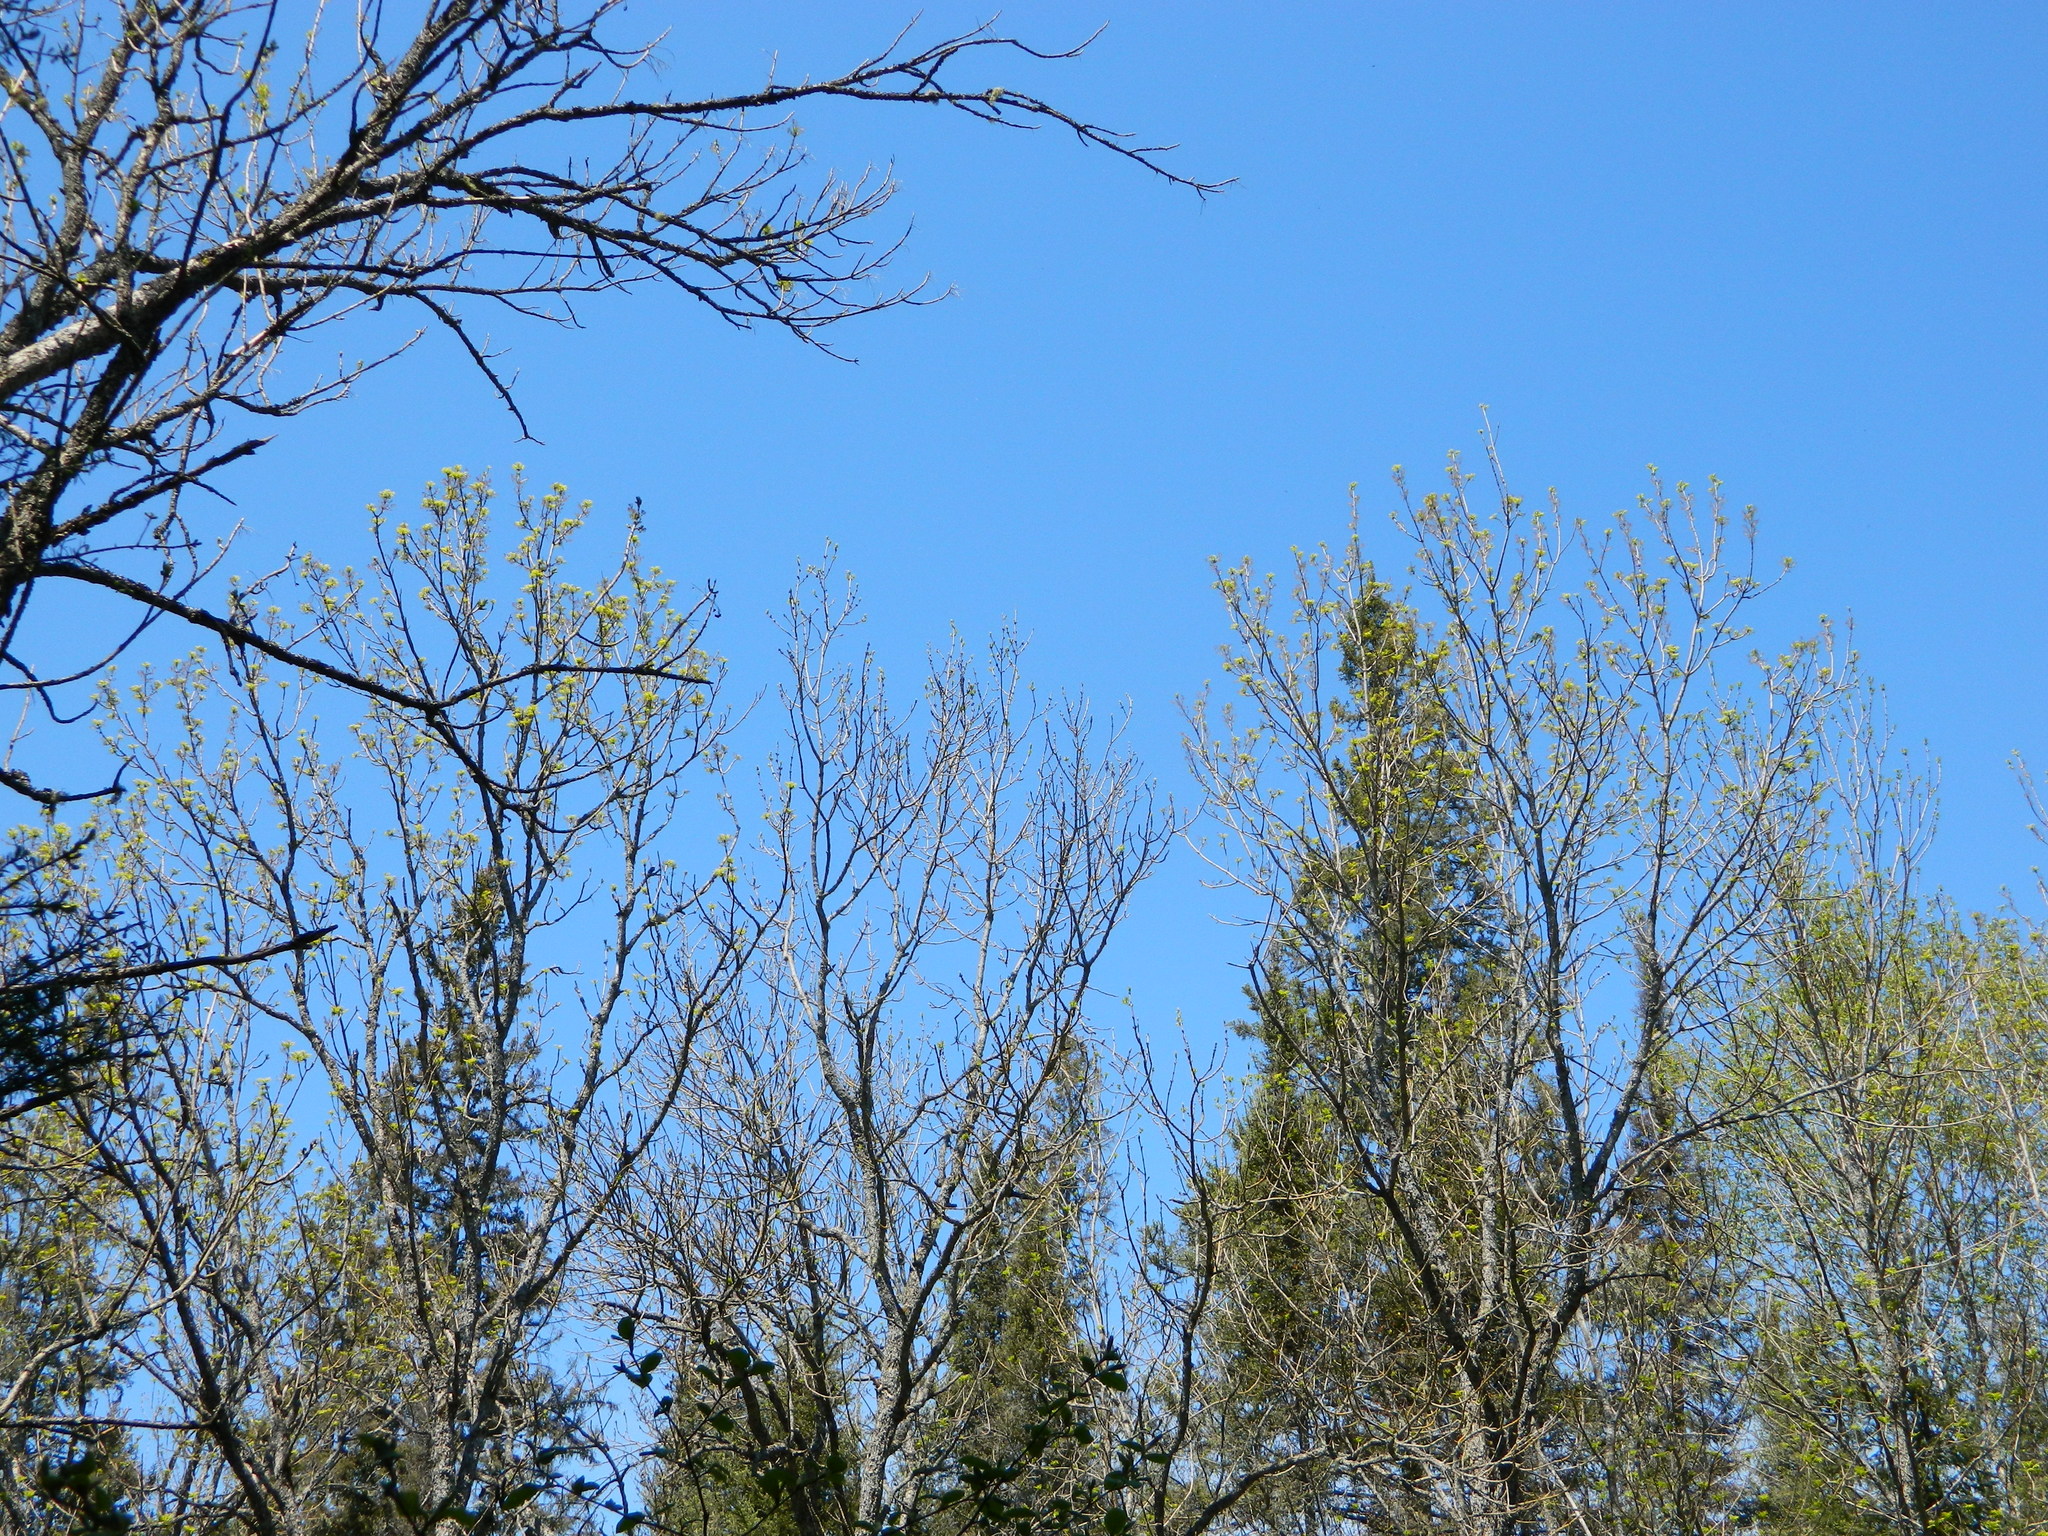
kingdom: Plantae
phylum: Tracheophyta
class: Magnoliopsida
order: Lamiales
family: Oleaceae
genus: Fraxinus
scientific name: Fraxinus nigra
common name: Black ash
